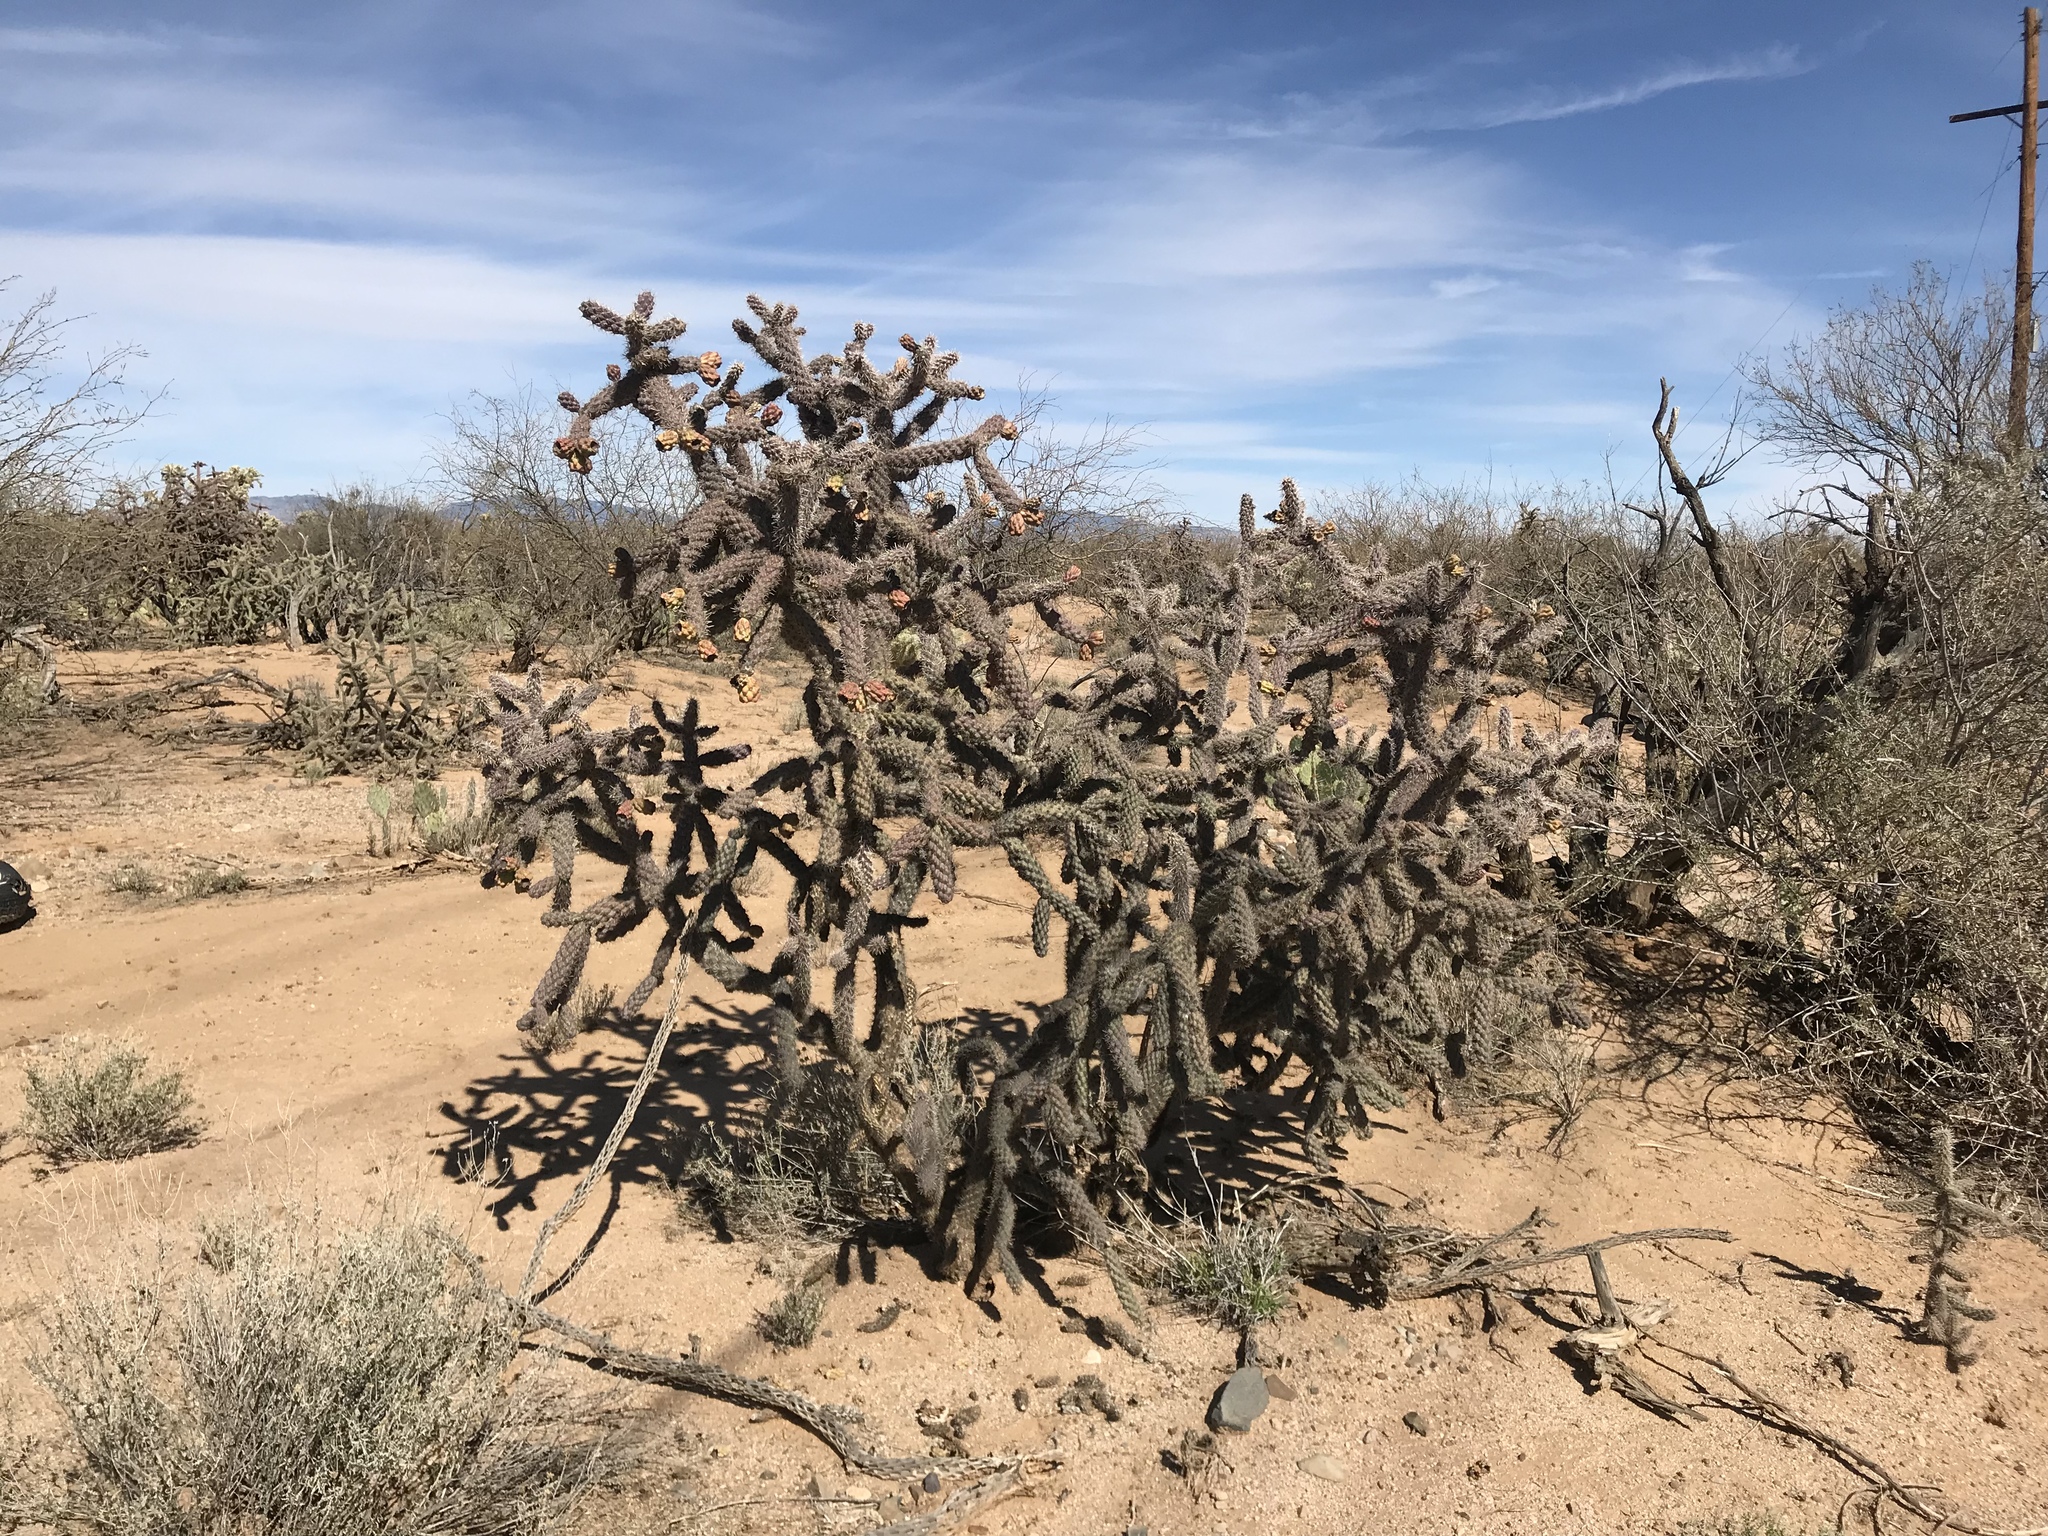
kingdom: Plantae
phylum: Tracheophyta
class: Magnoliopsida
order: Caryophyllales
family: Cactaceae
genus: Cylindropuntia
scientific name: Cylindropuntia imbricata
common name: Candelabrum cactus
